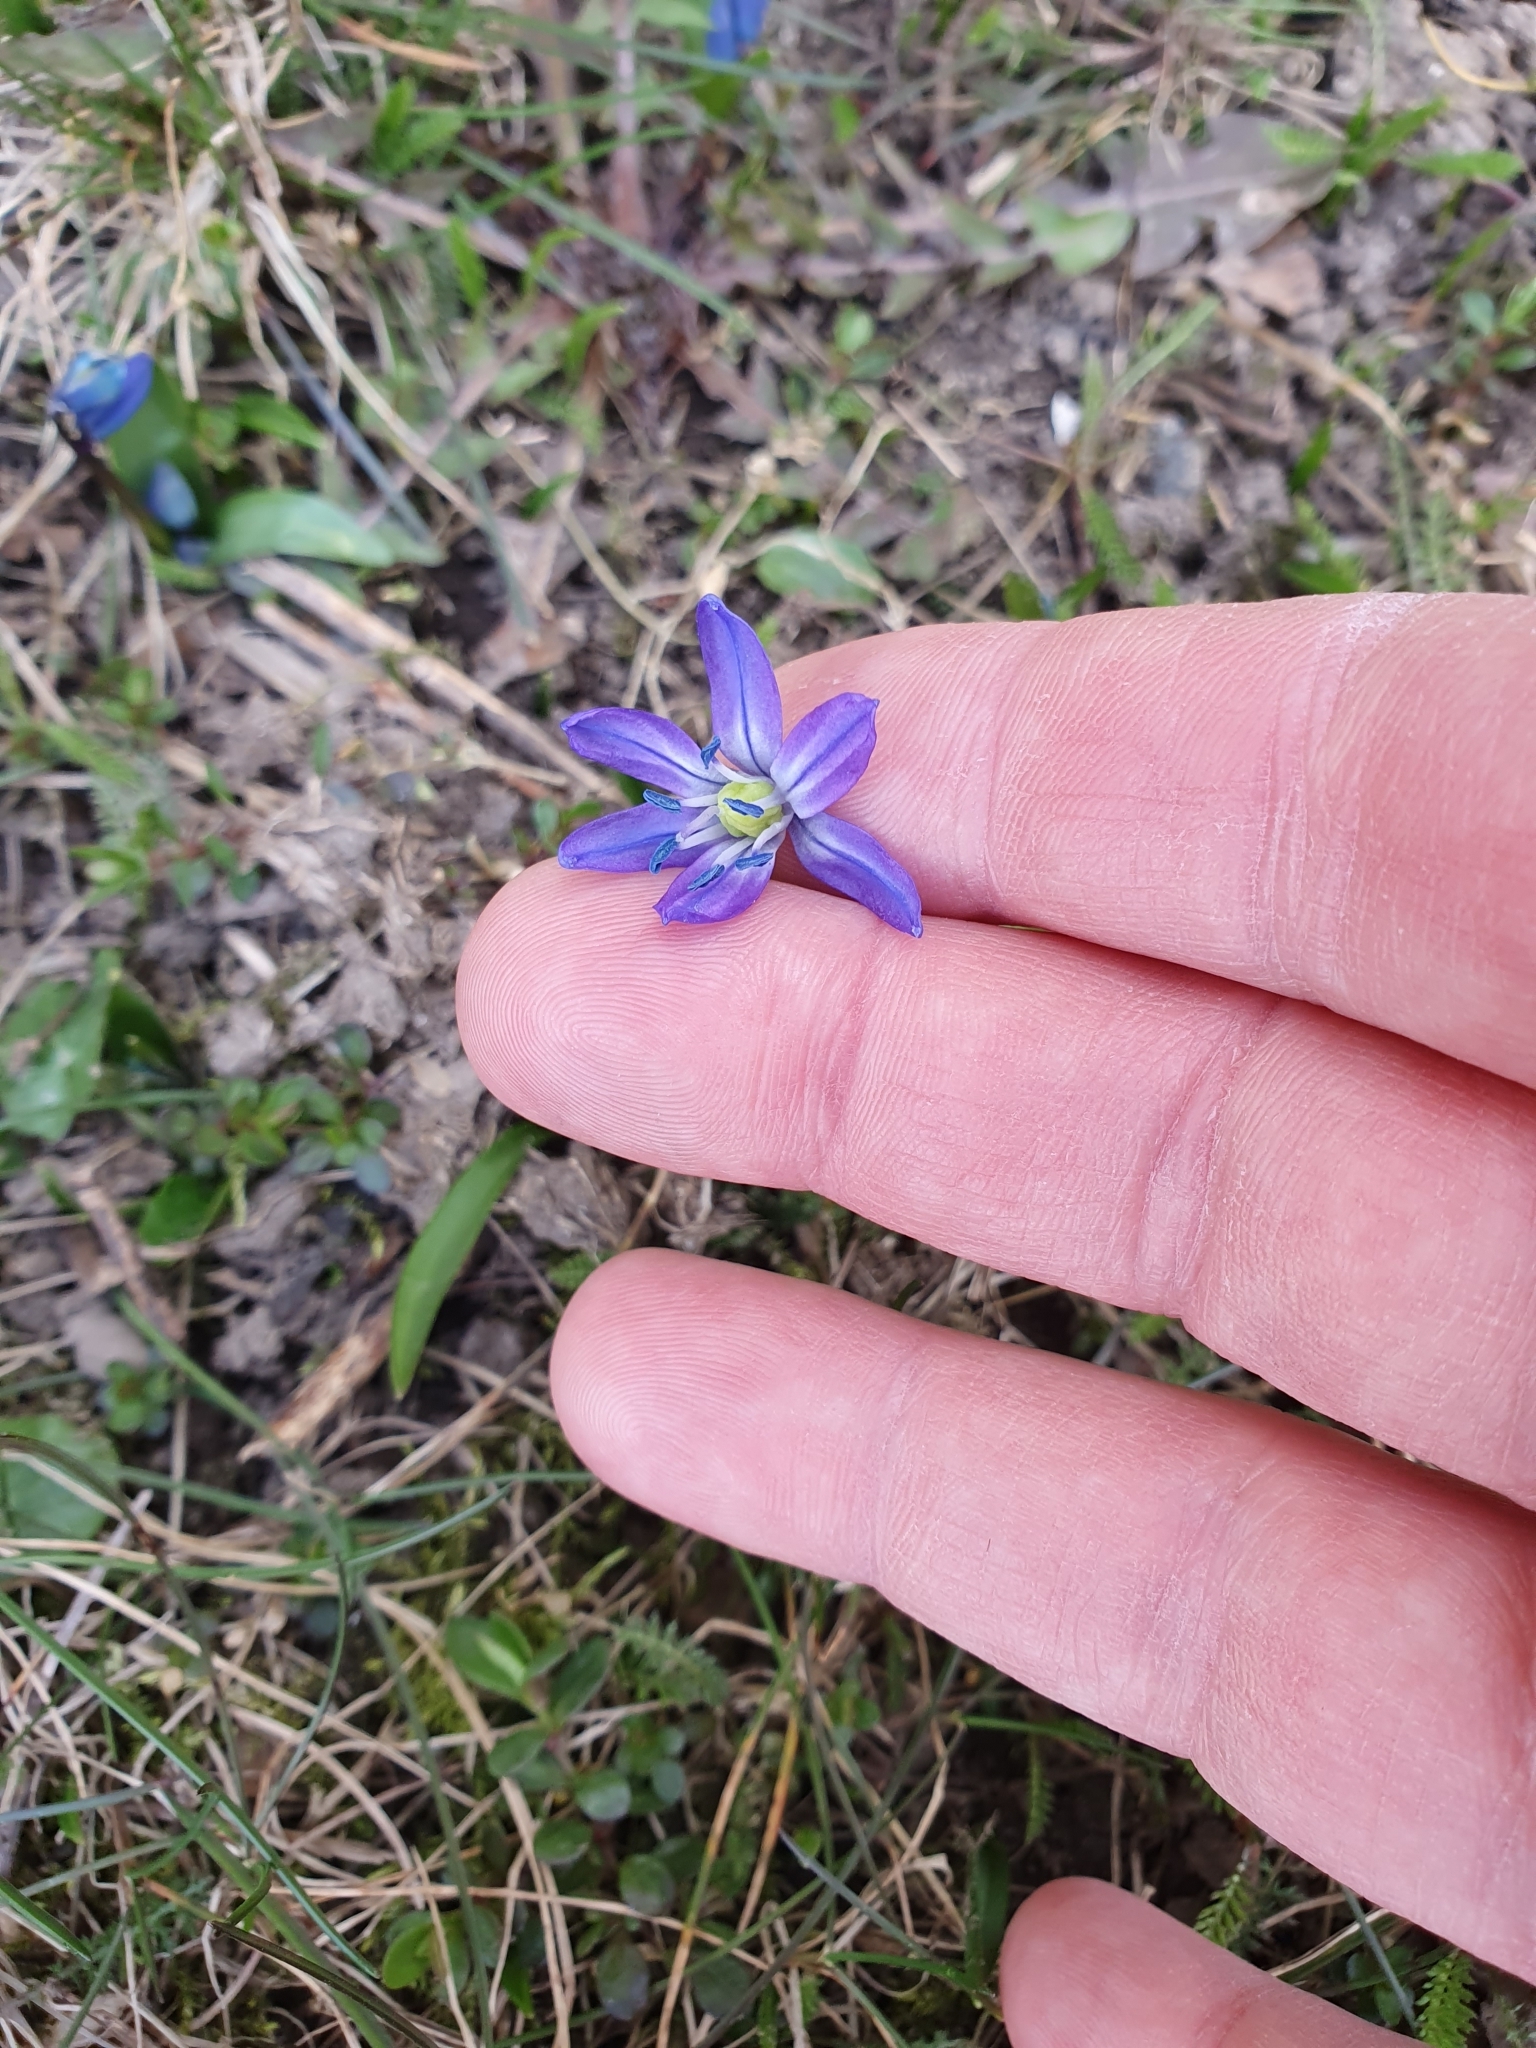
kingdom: Plantae
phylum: Tracheophyta
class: Liliopsida
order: Asparagales
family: Asparagaceae
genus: Scilla
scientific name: Scilla siberica
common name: Siberian squill
